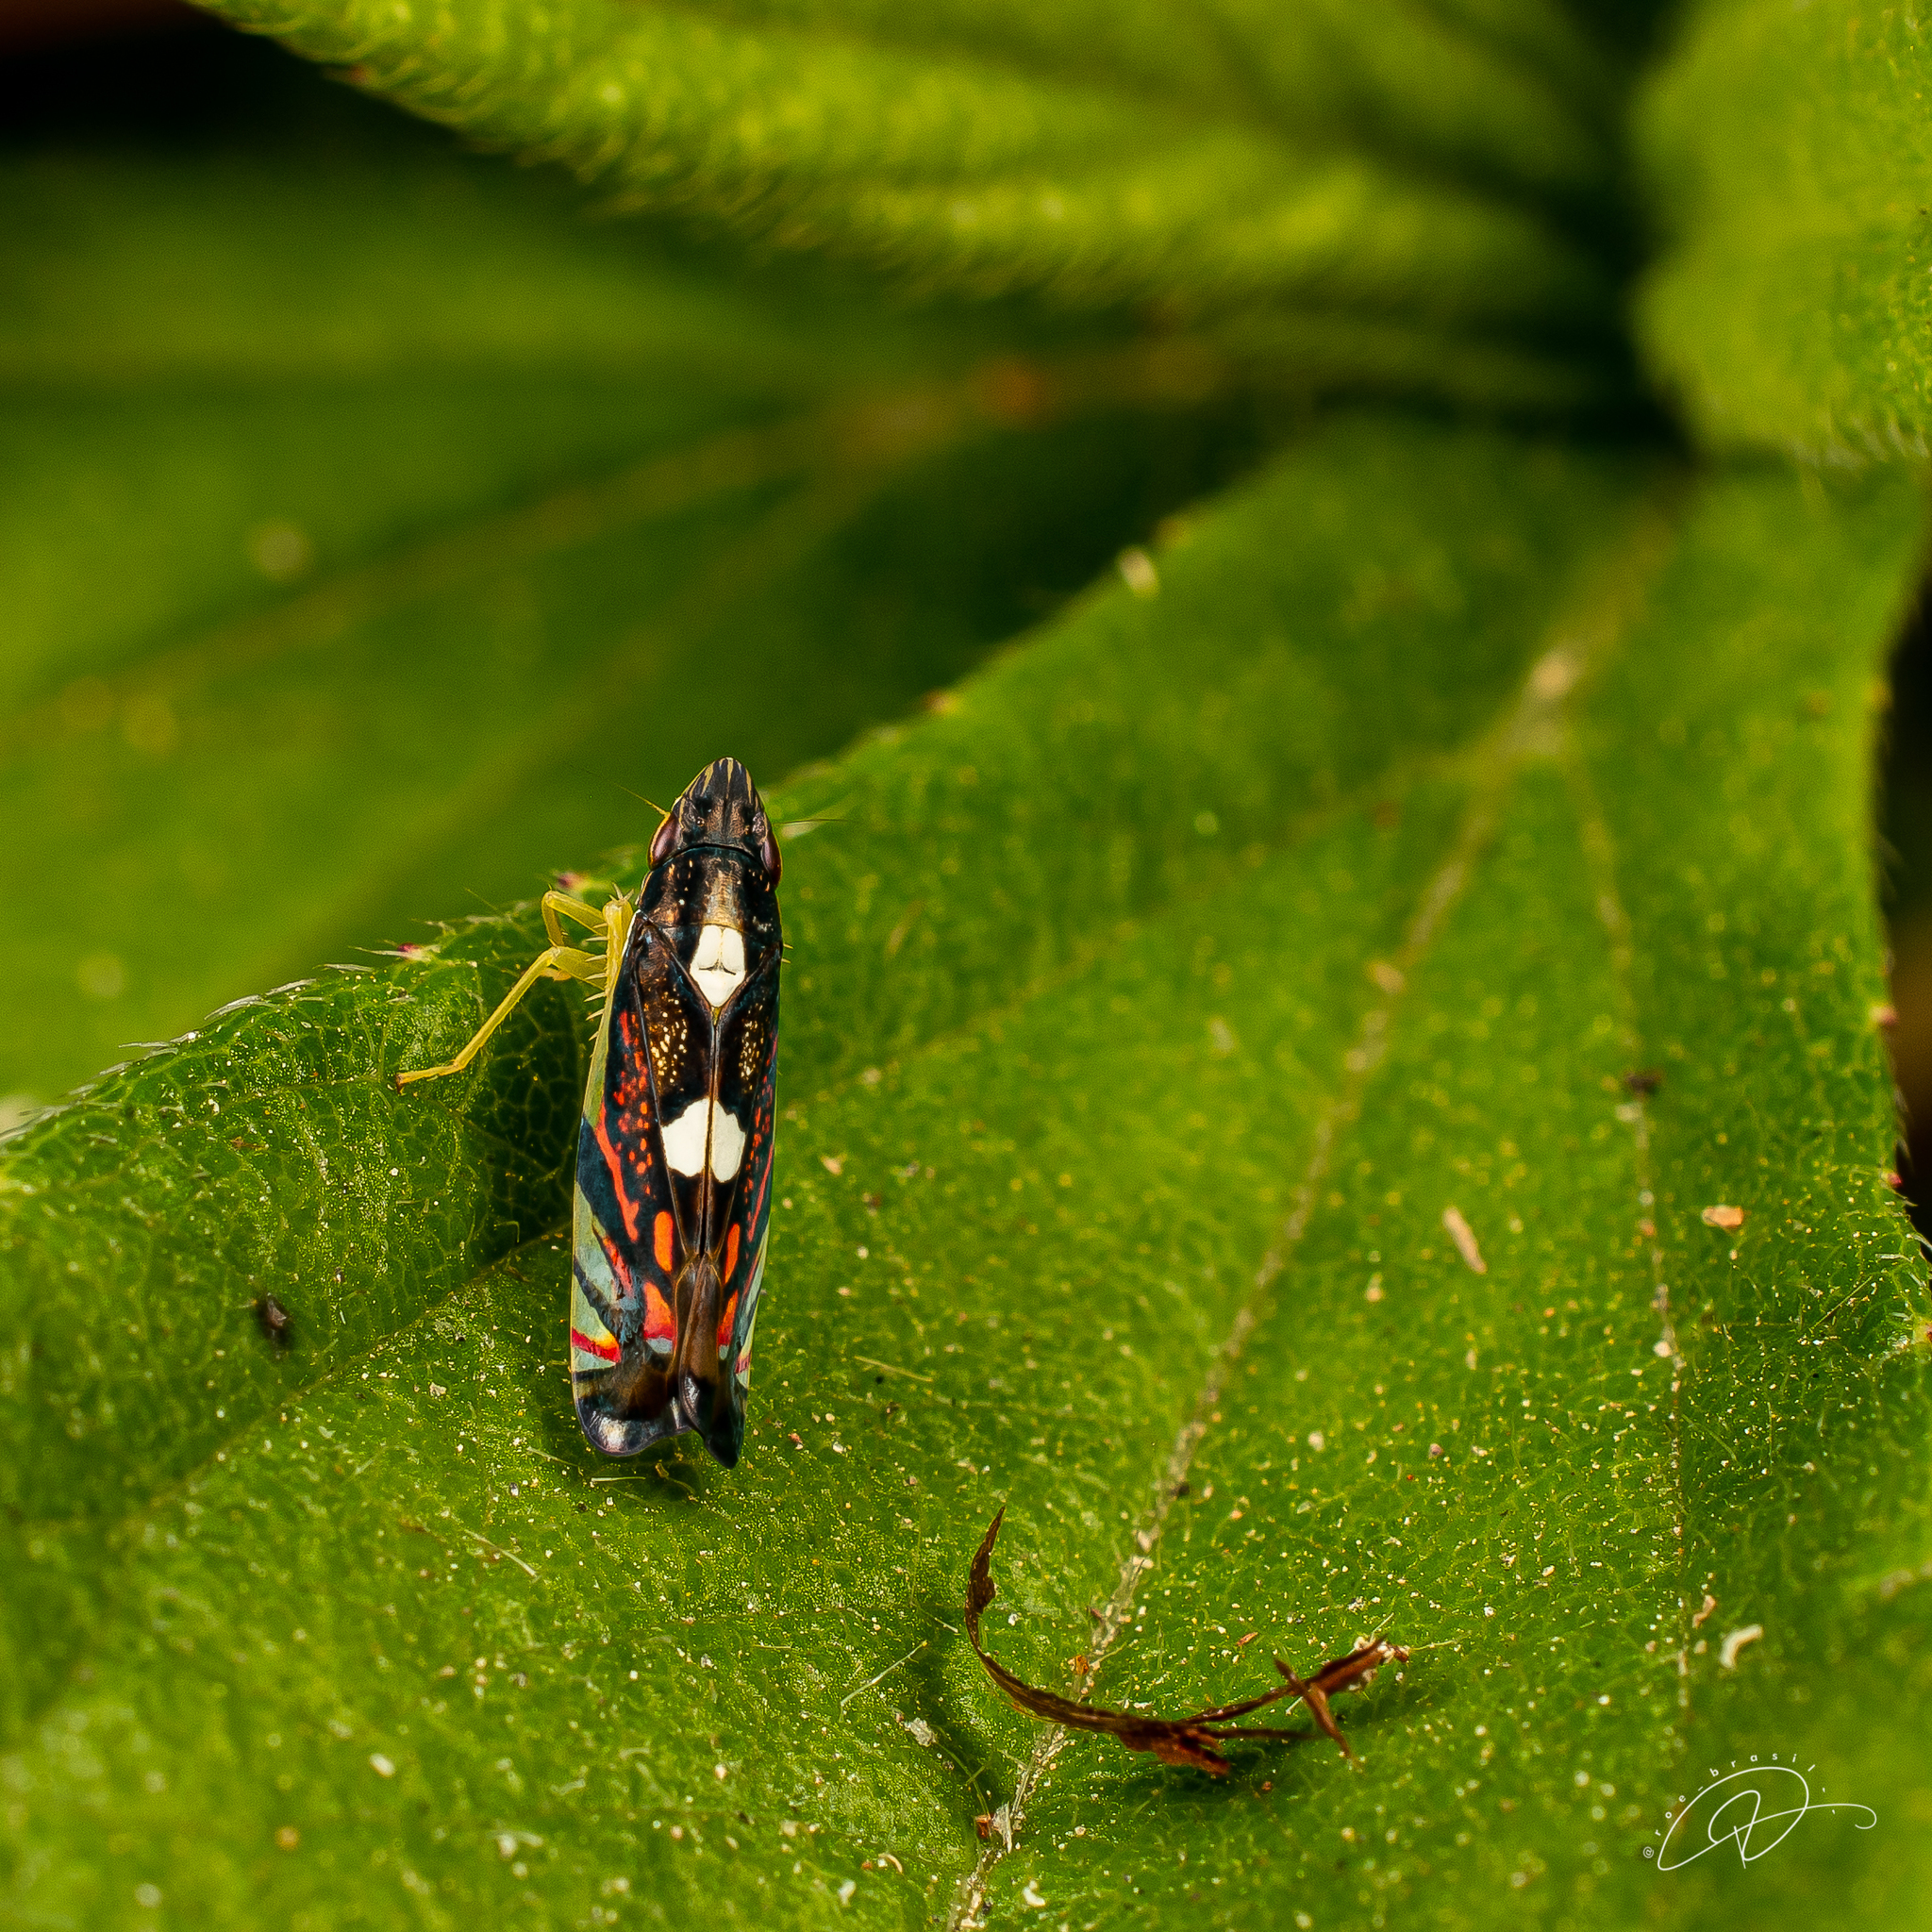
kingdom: Animalia
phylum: Arthropoda
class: Insecta
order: Hemiptera
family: Cicadellidae
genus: Diedrocephala
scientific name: Diedrocephala variegata
